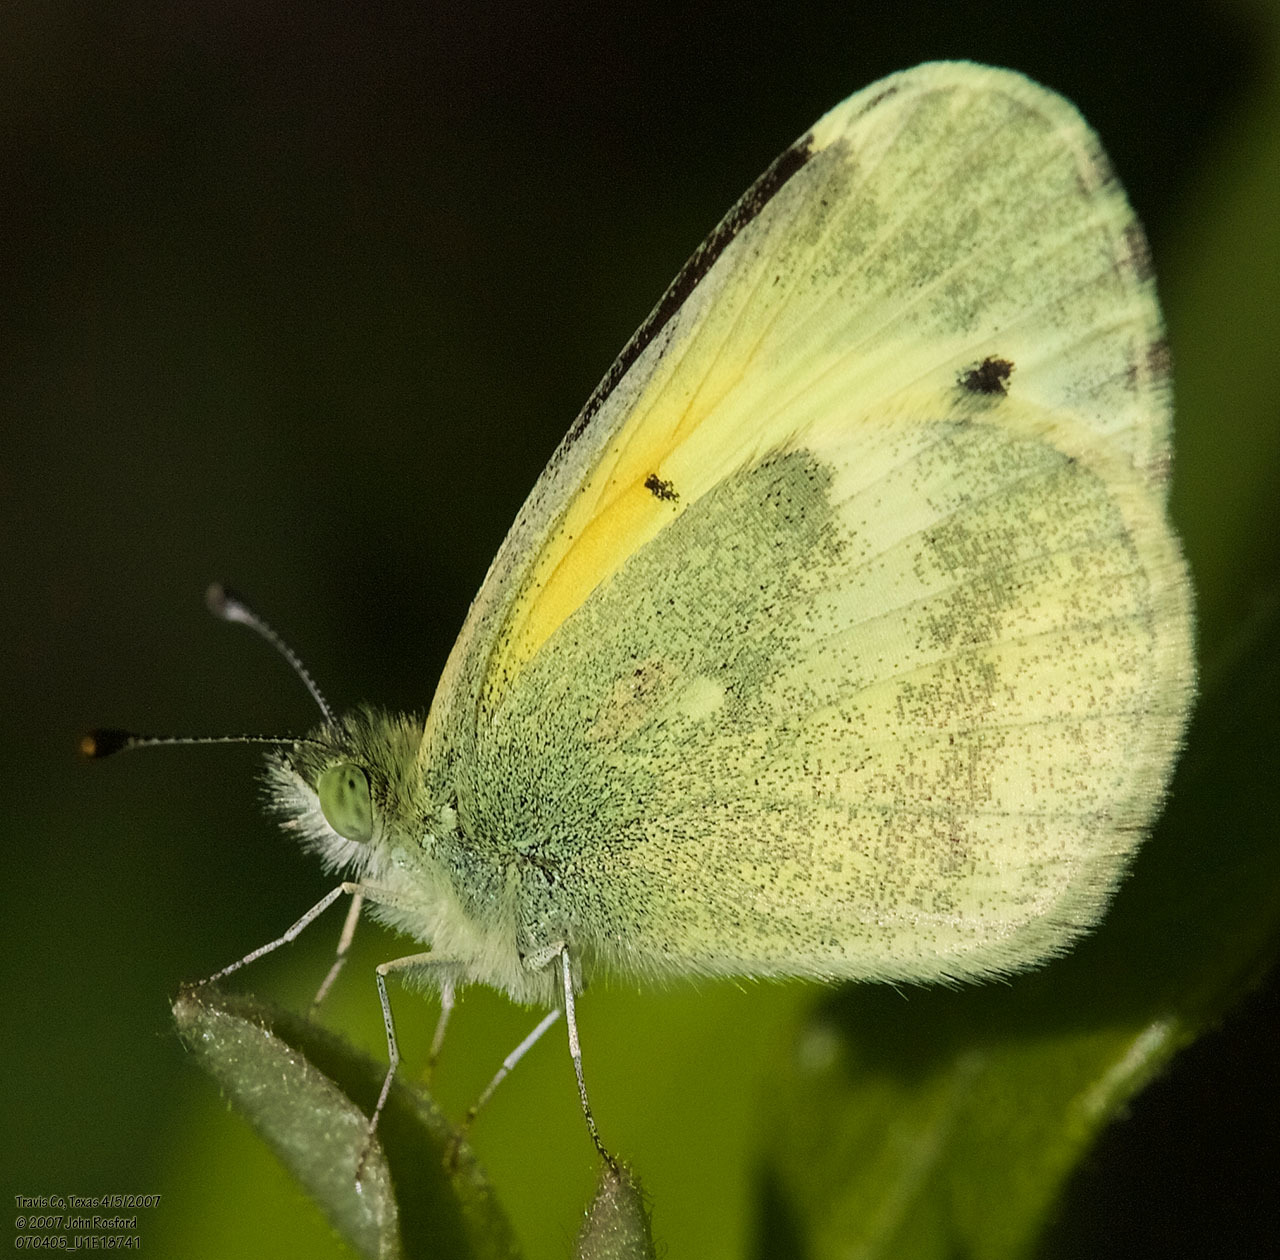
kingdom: Animalia
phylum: Arthropoda
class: Insecta
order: Lepidoptera
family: Pieridae
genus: Nathalis
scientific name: Nathalis iole
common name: Dainty sulphur
